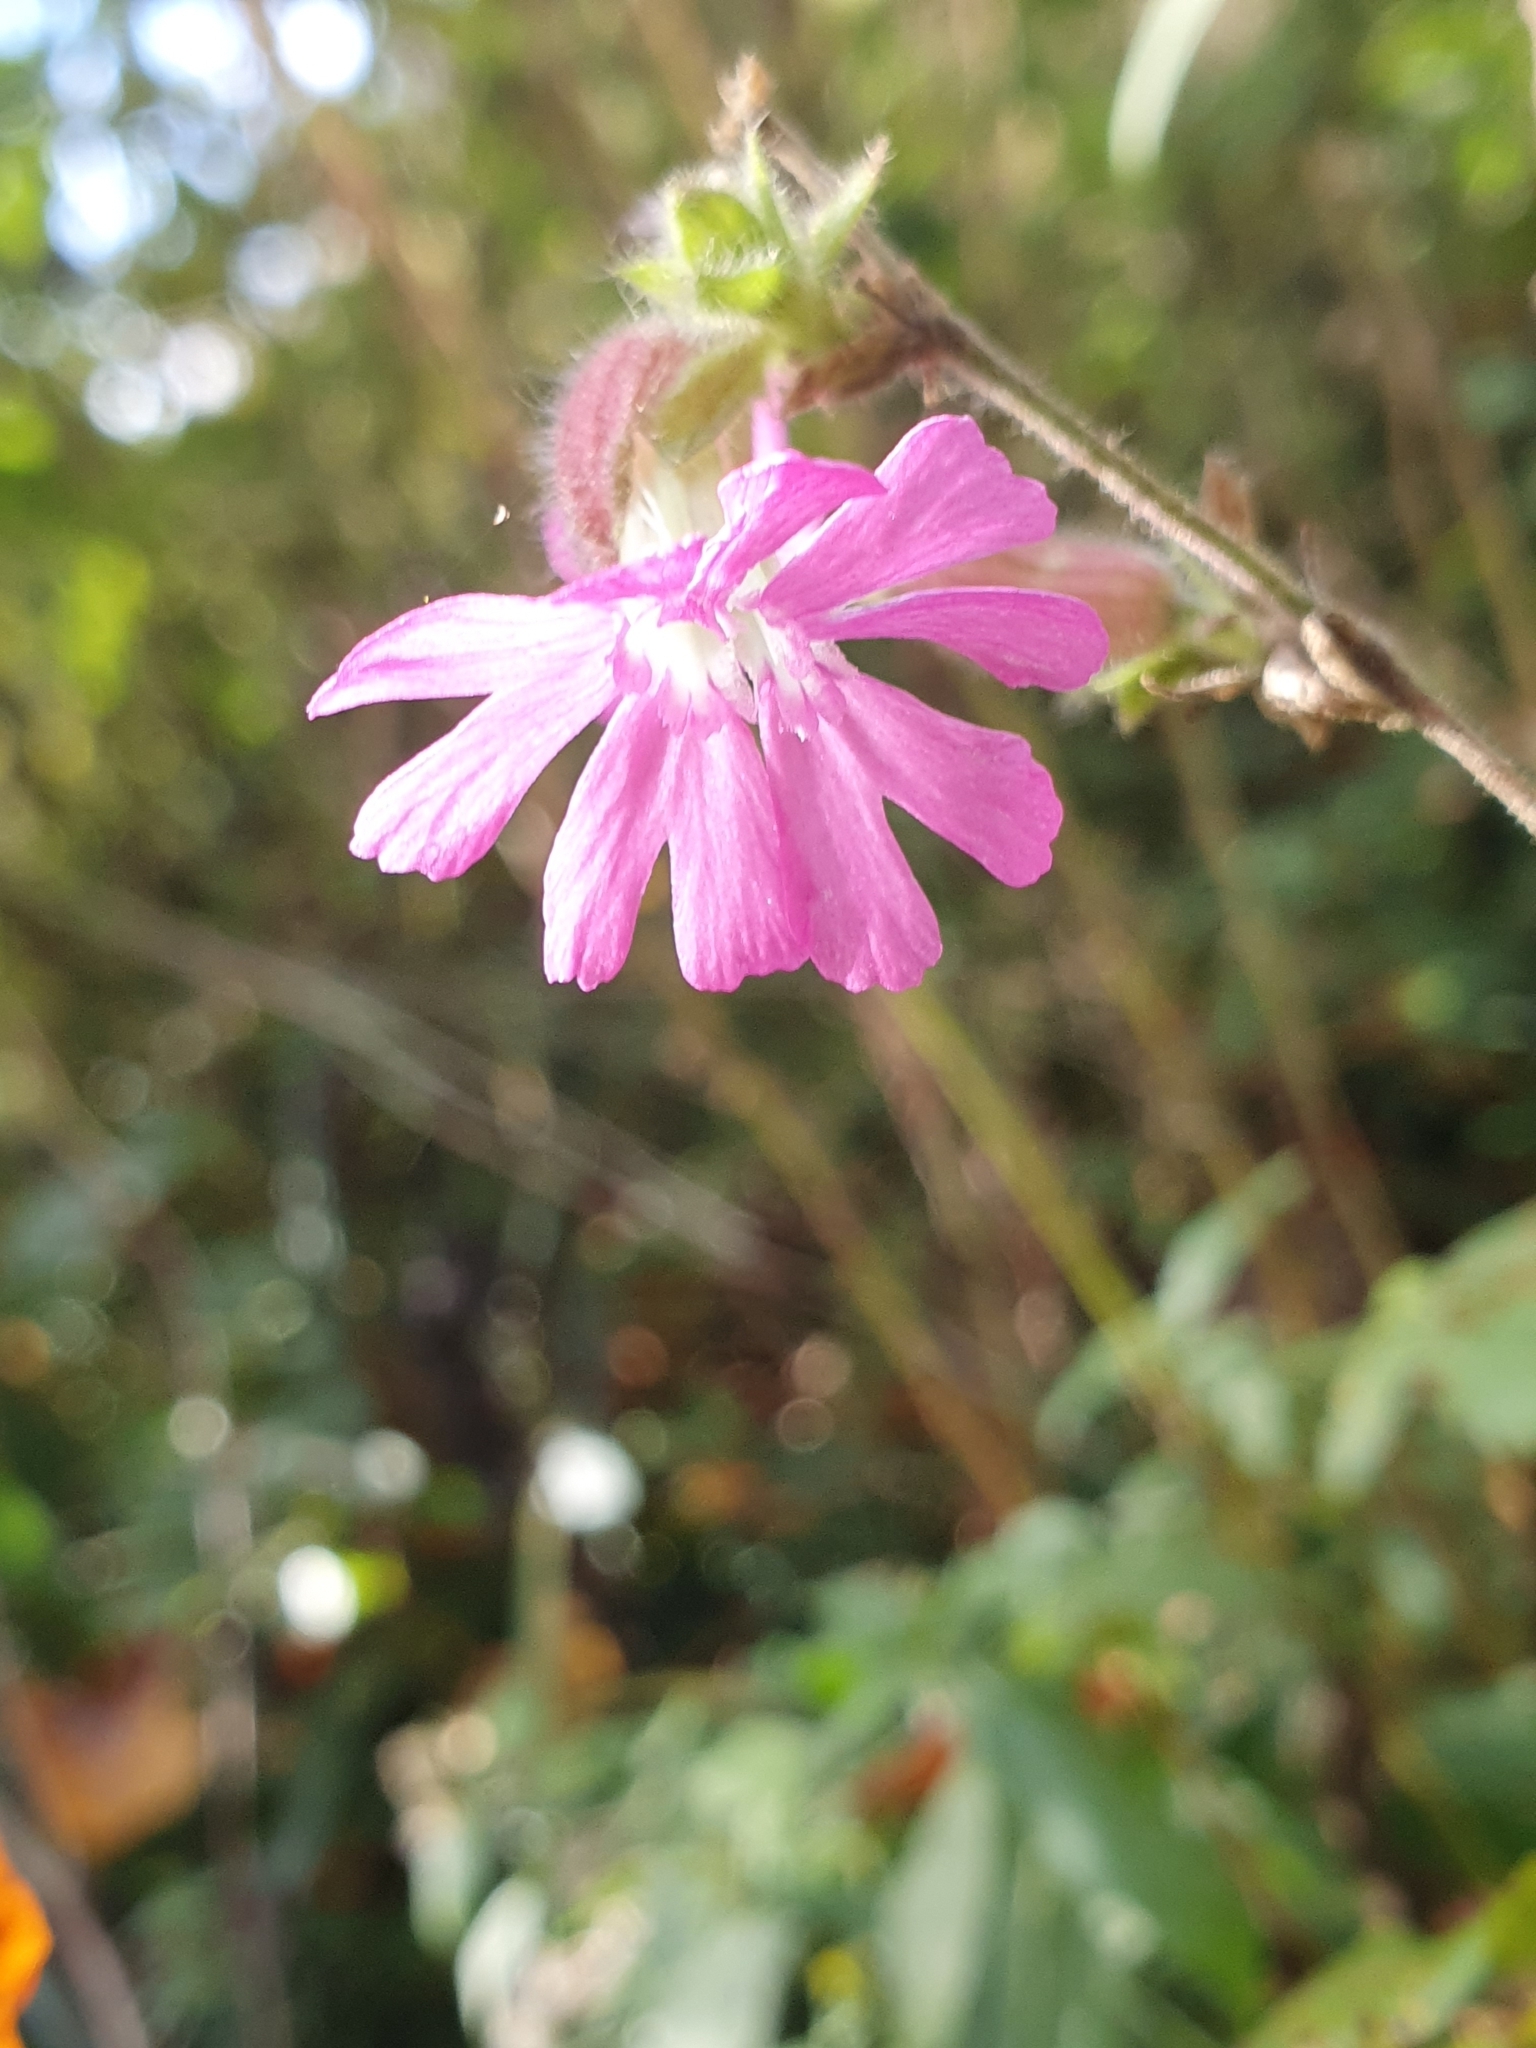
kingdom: Plantae
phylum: Tracheophyta
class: Magnoliopsida
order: Caryophyllales
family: Caryophyllaceae
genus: Silene
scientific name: Silene dioica
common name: Red campion
